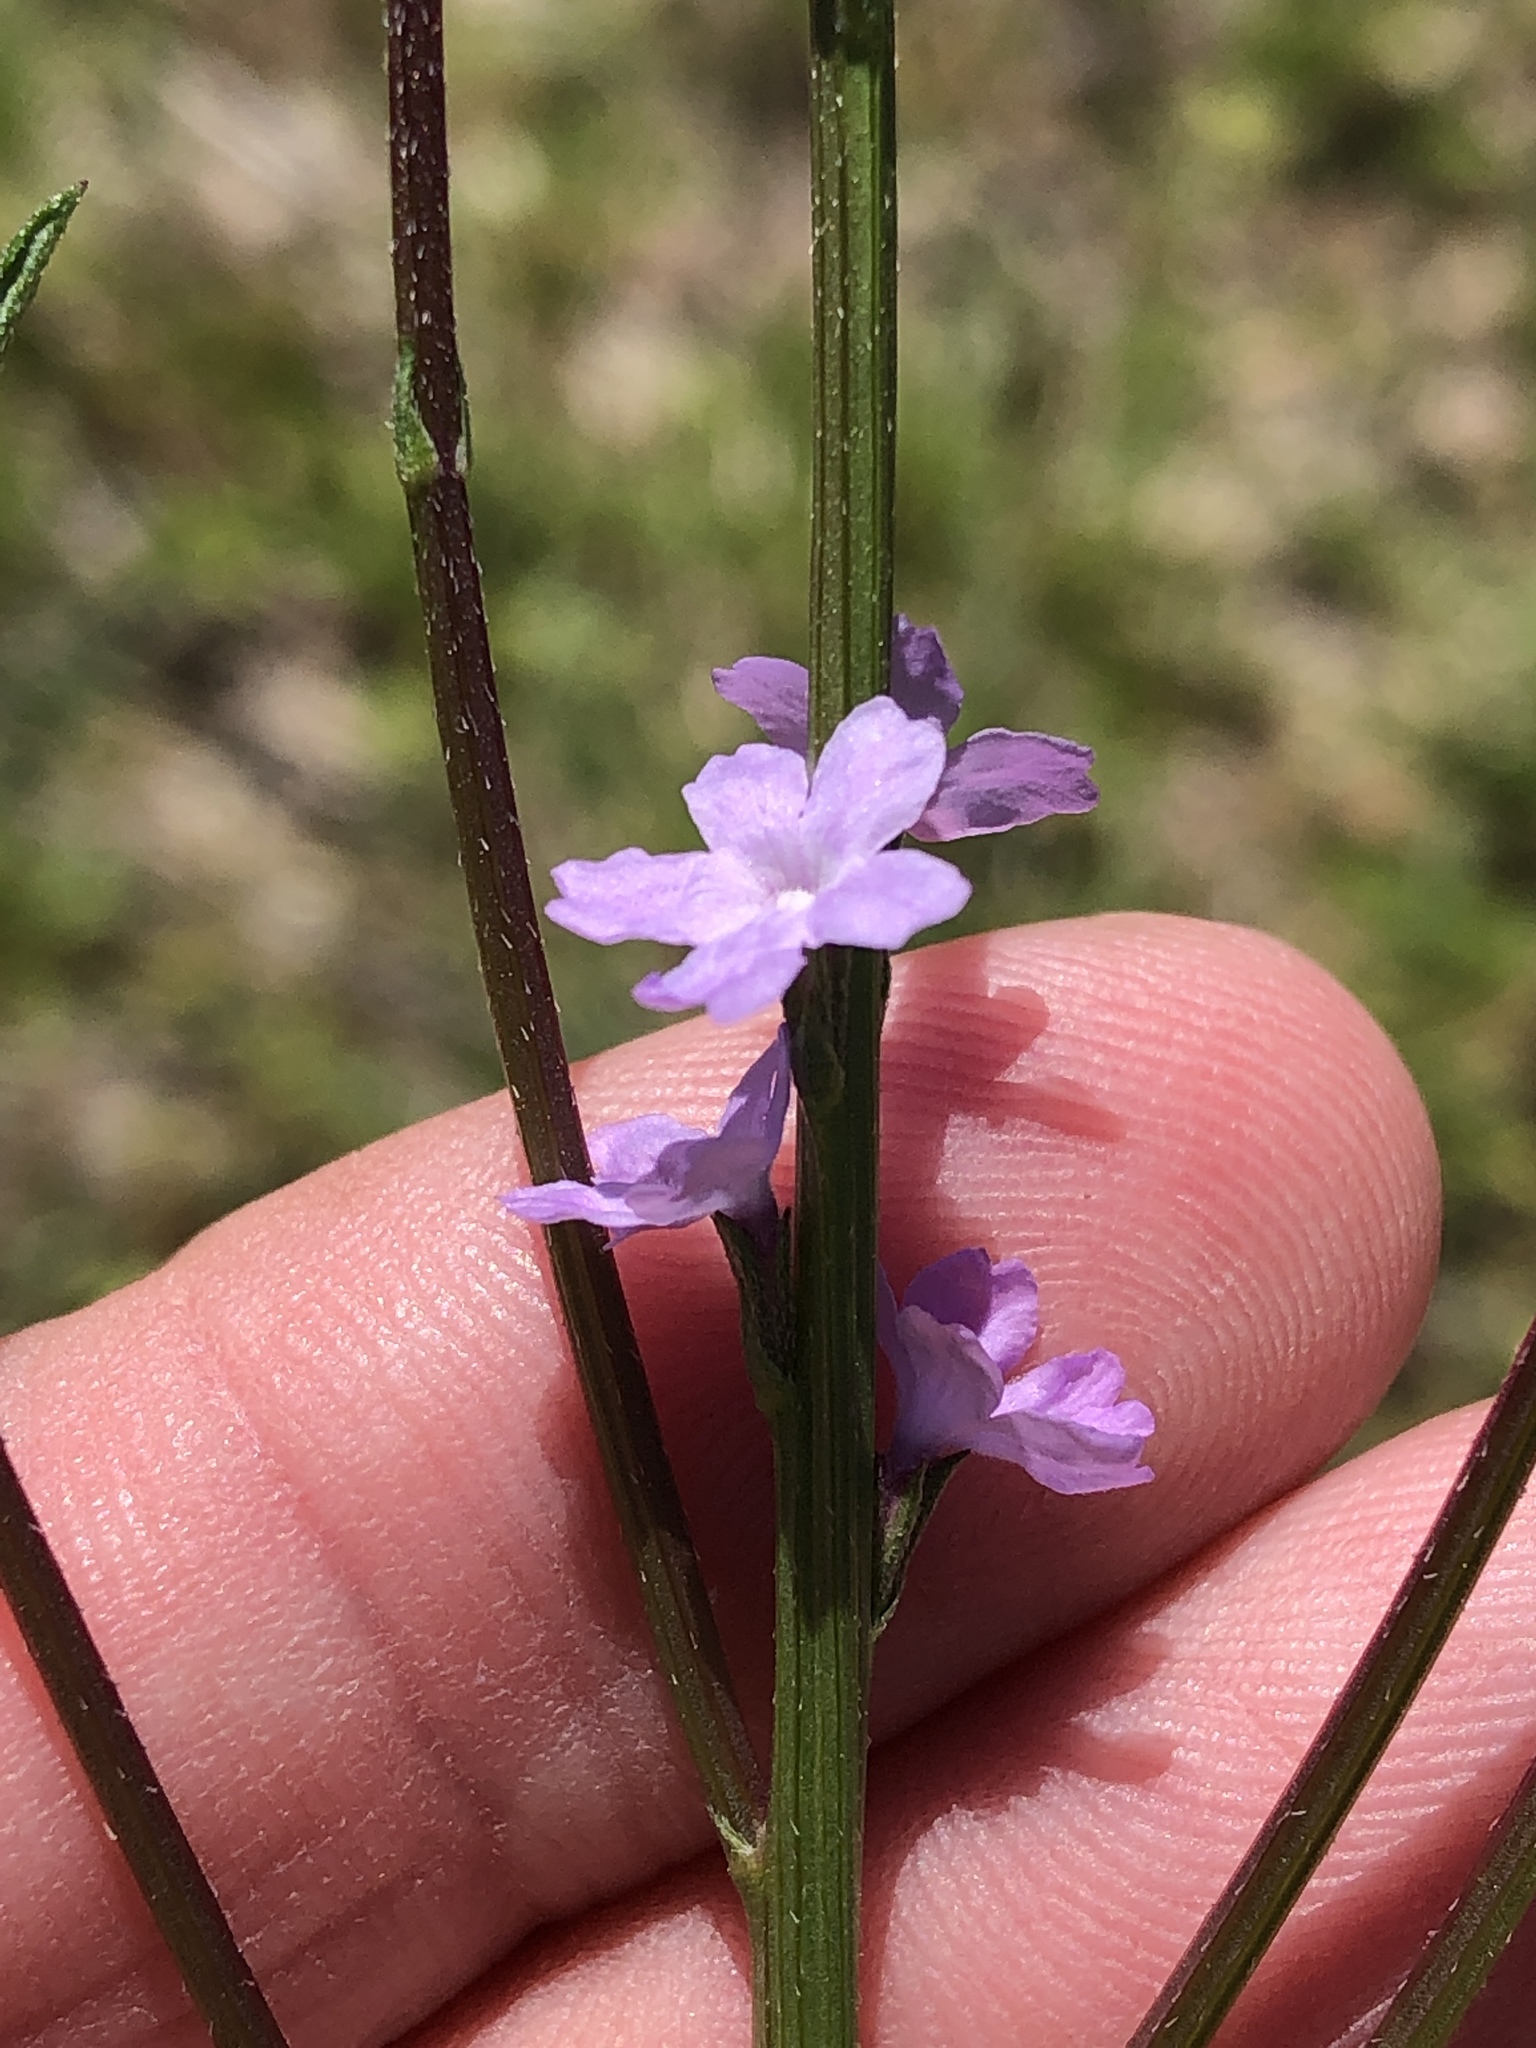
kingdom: Plantae
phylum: Tracheophyta
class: Magnoliopsida
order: Lamiales
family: Verbenaceae
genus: Verbena
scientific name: Verbena halei
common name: Texas vervain
